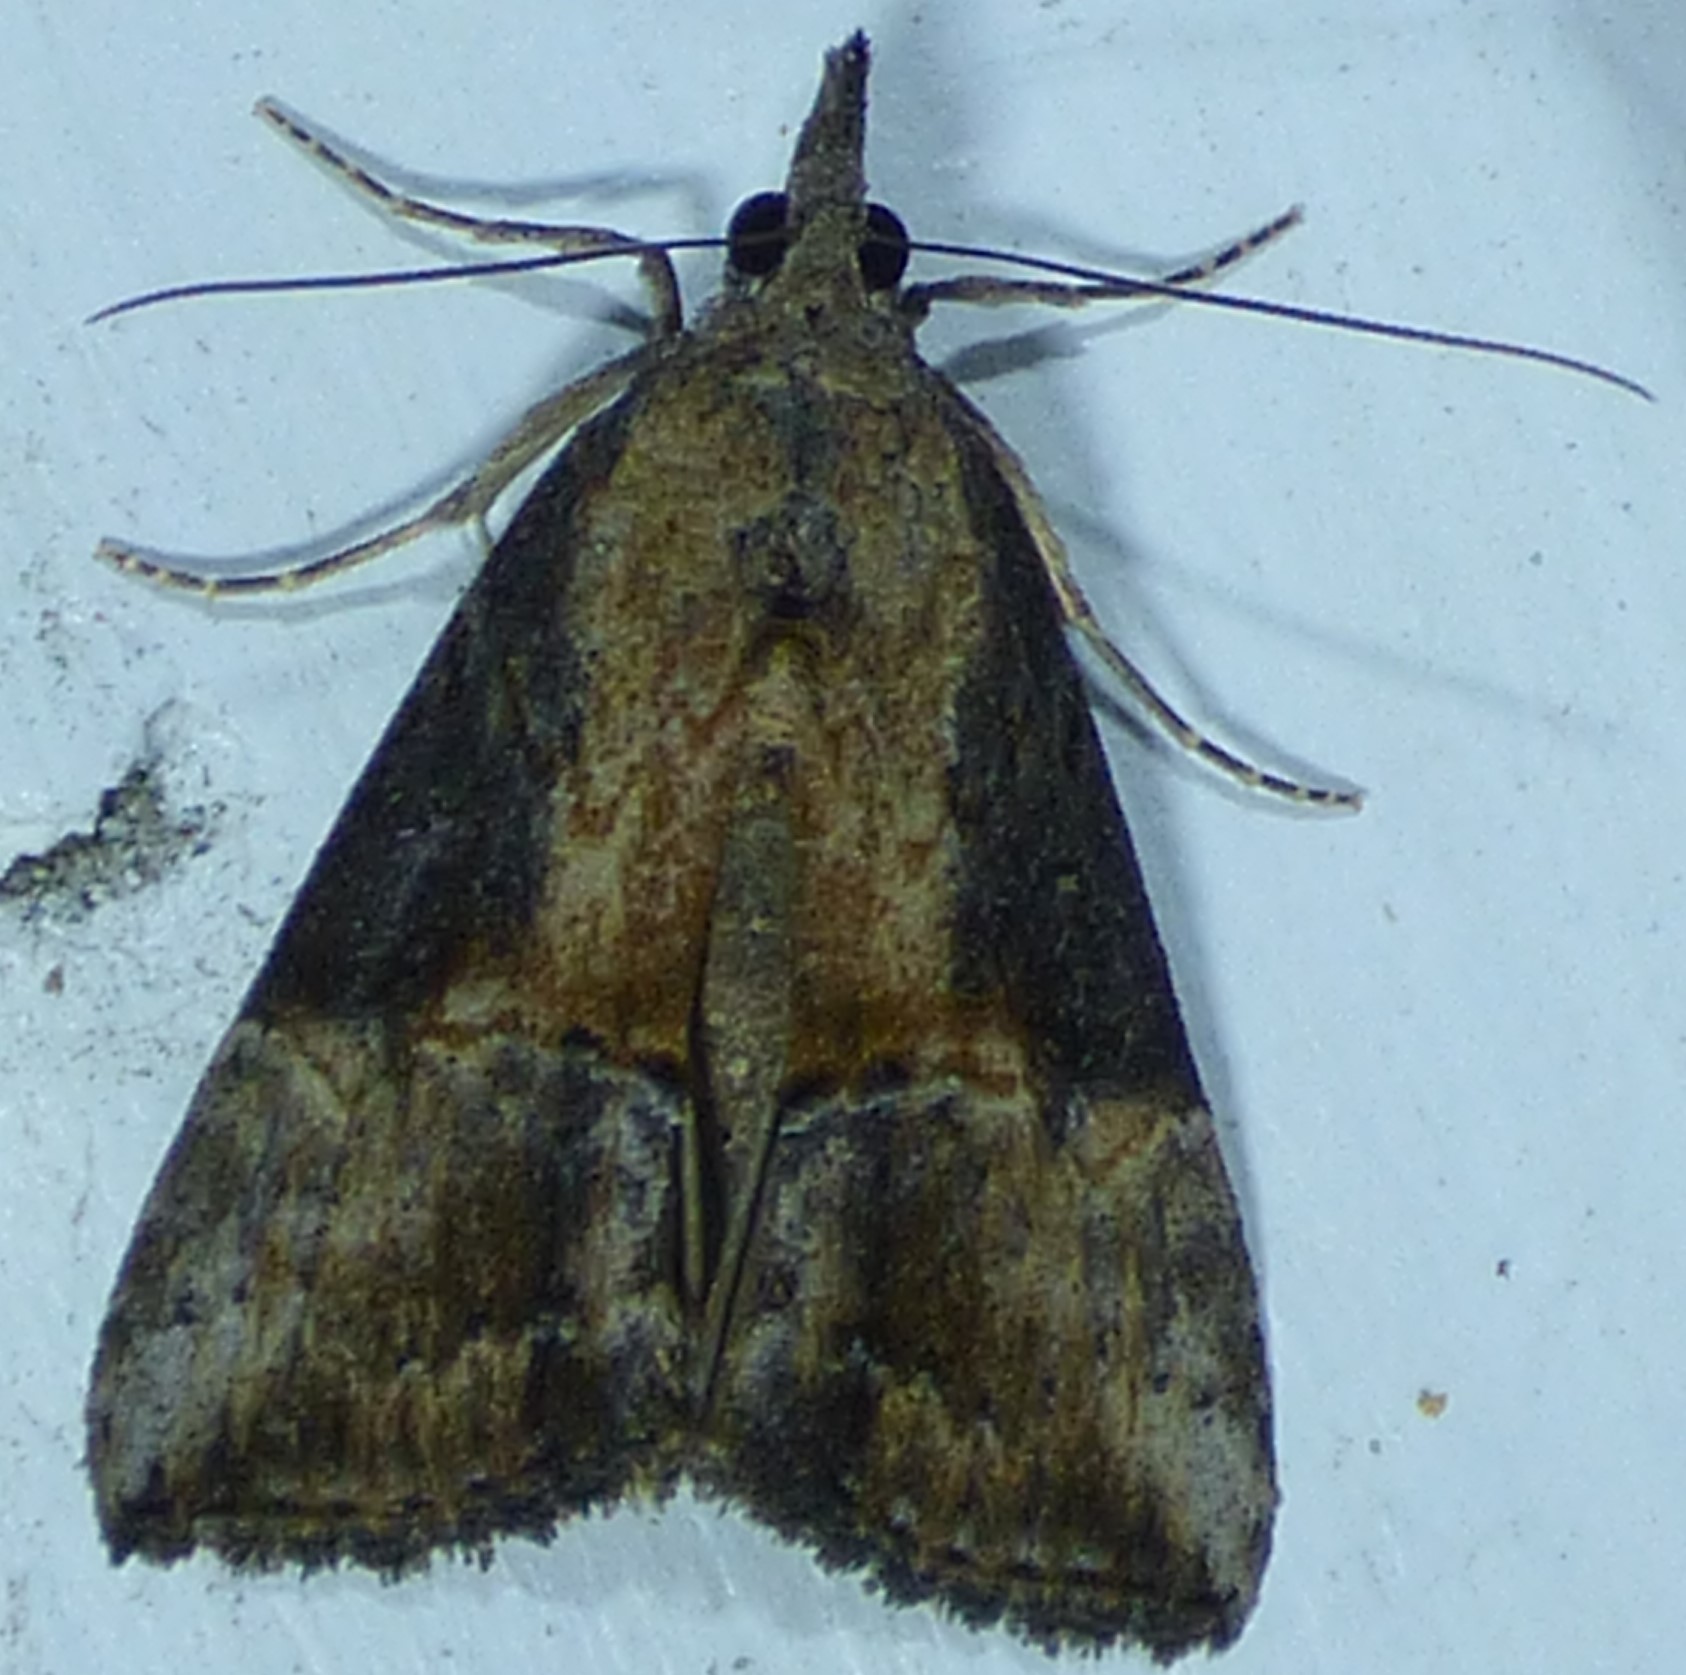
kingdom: Animalia
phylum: Arthropoda
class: Insecta
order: Lepidoptera
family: Erebidae
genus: Hypena
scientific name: Hypena scabra
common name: Green cloverworm
